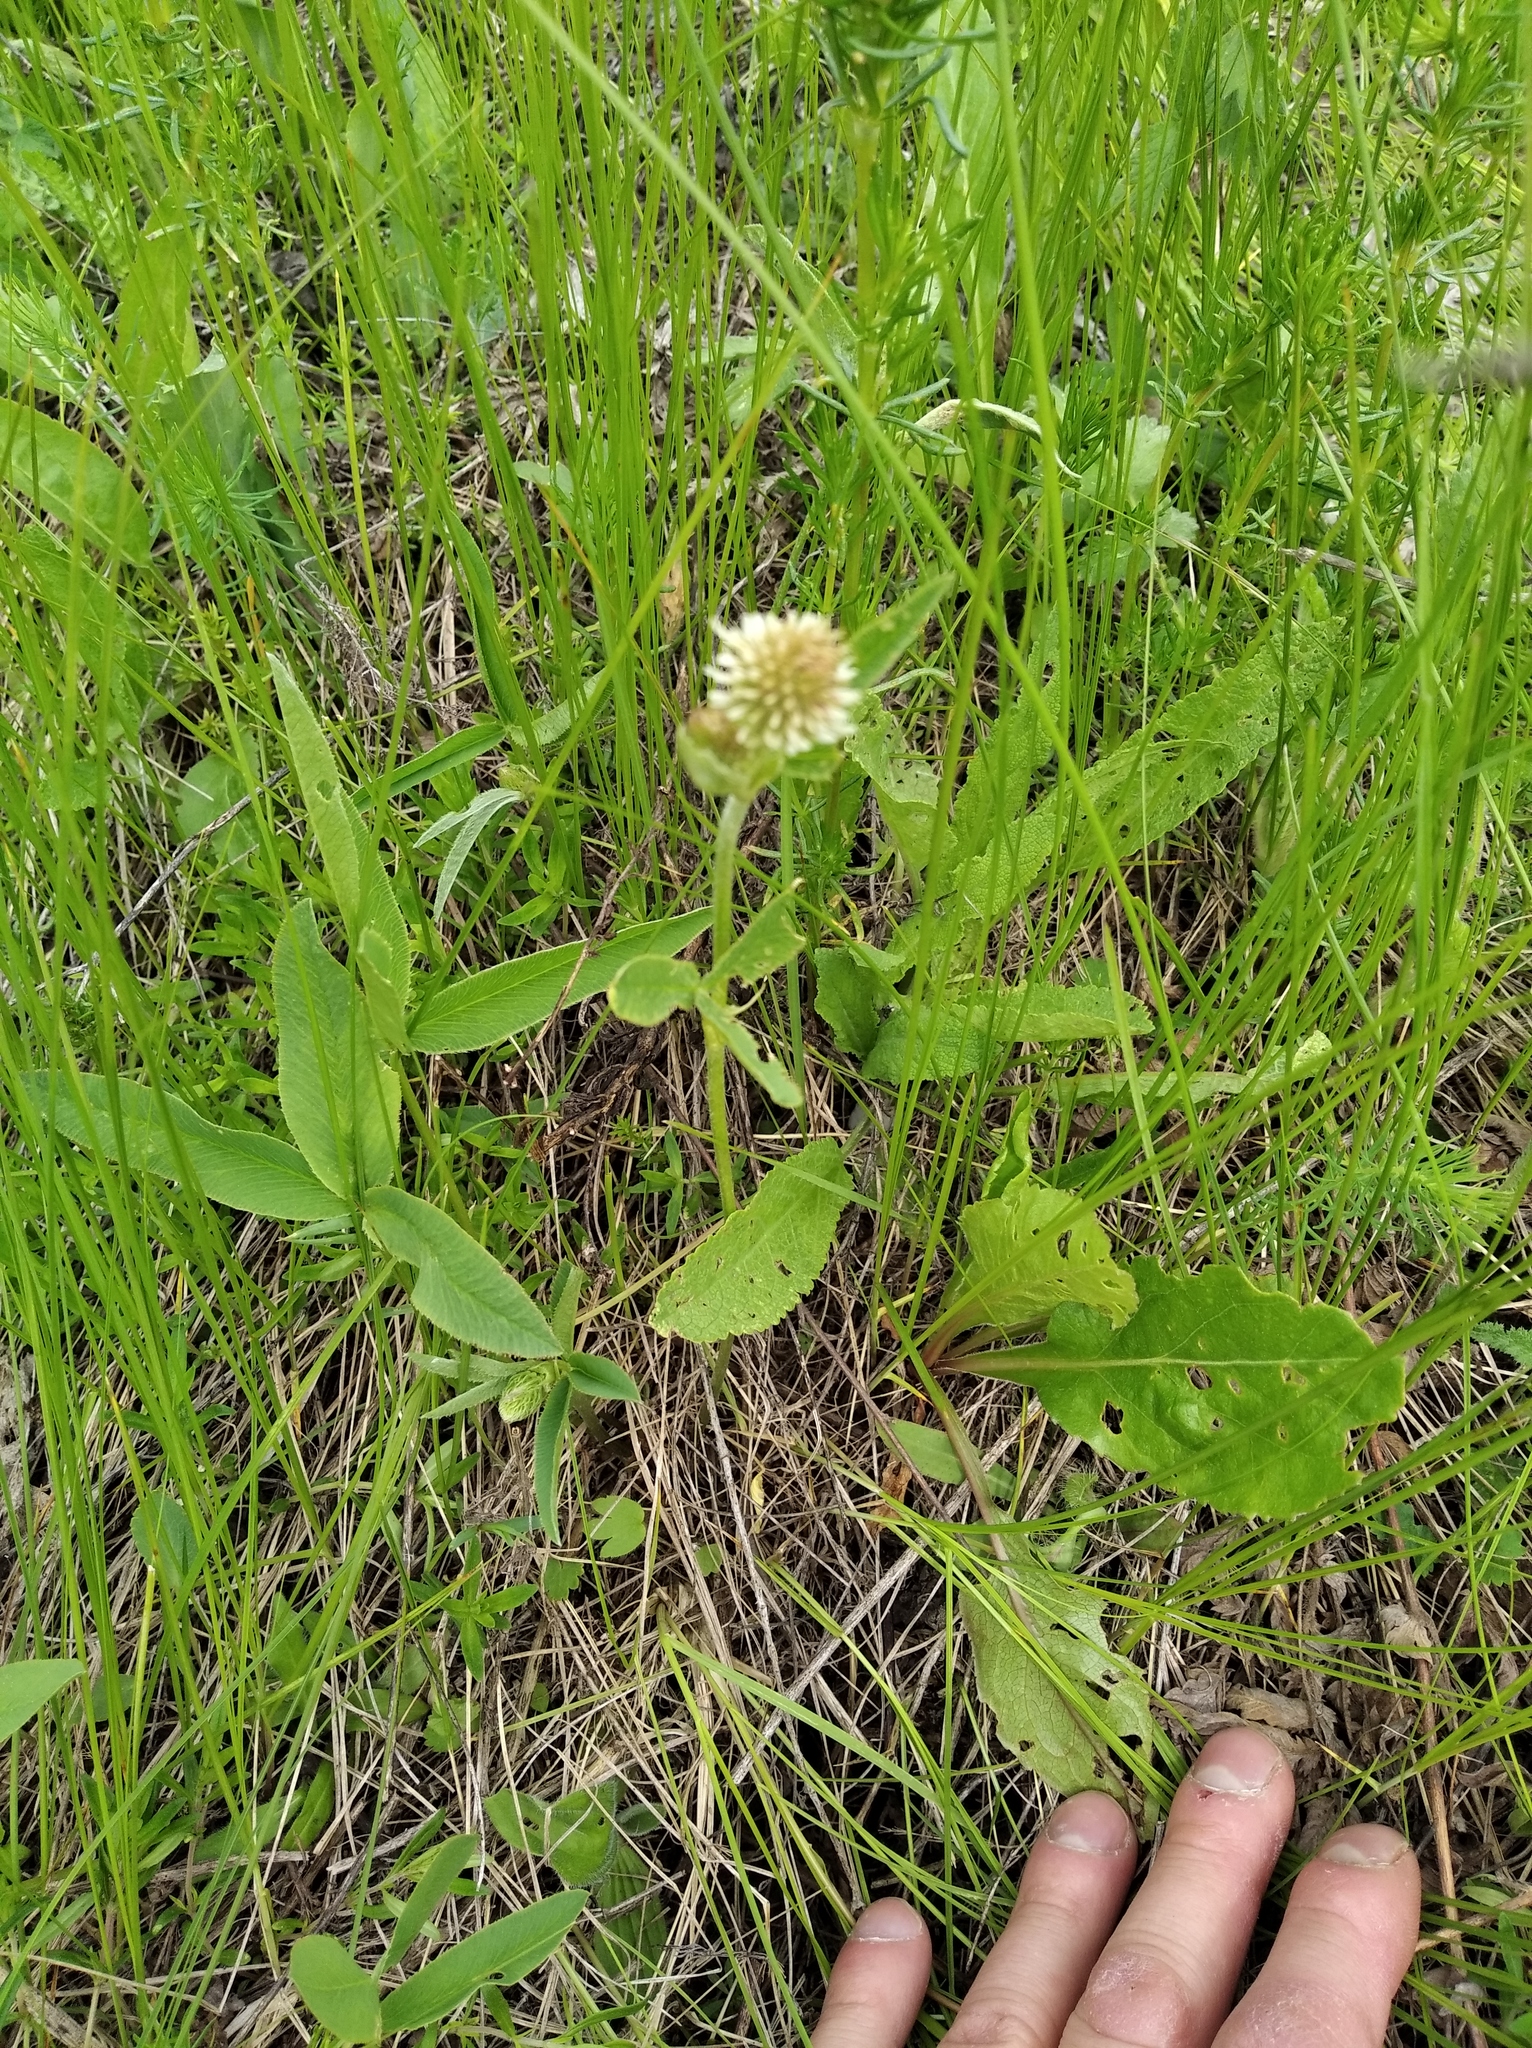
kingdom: Plantae
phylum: Tracheophyta
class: Magnoliopsida
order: Fabales
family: Fabaceae
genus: Trifolium
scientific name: Trifolium montanum
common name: Mountain clover
